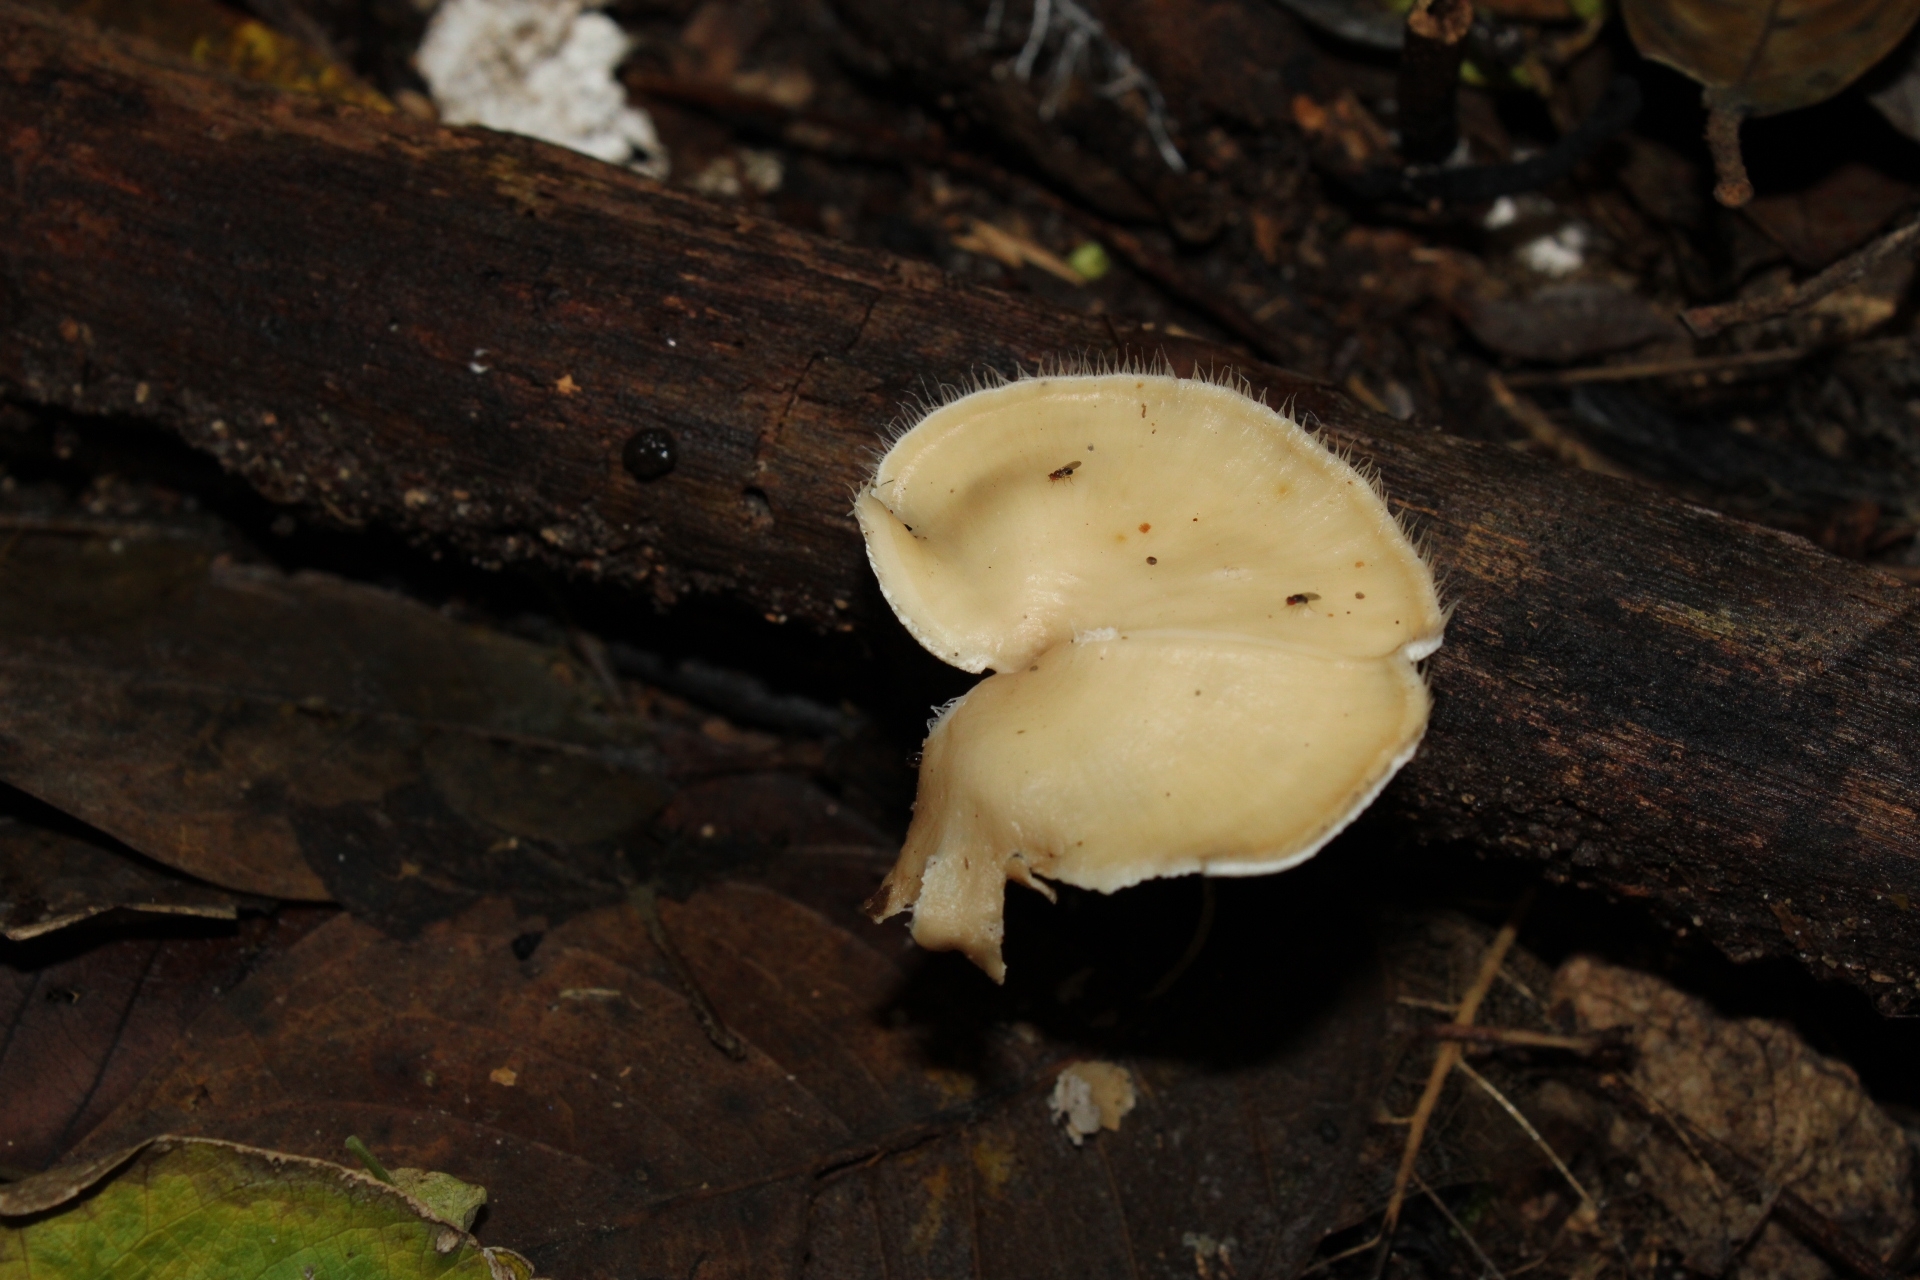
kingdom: Fungi
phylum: Basidiomycota
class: Agaricomycetes
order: Polyporales
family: Polyporaceae
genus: Lentinus
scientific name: Lentinus flexipes
